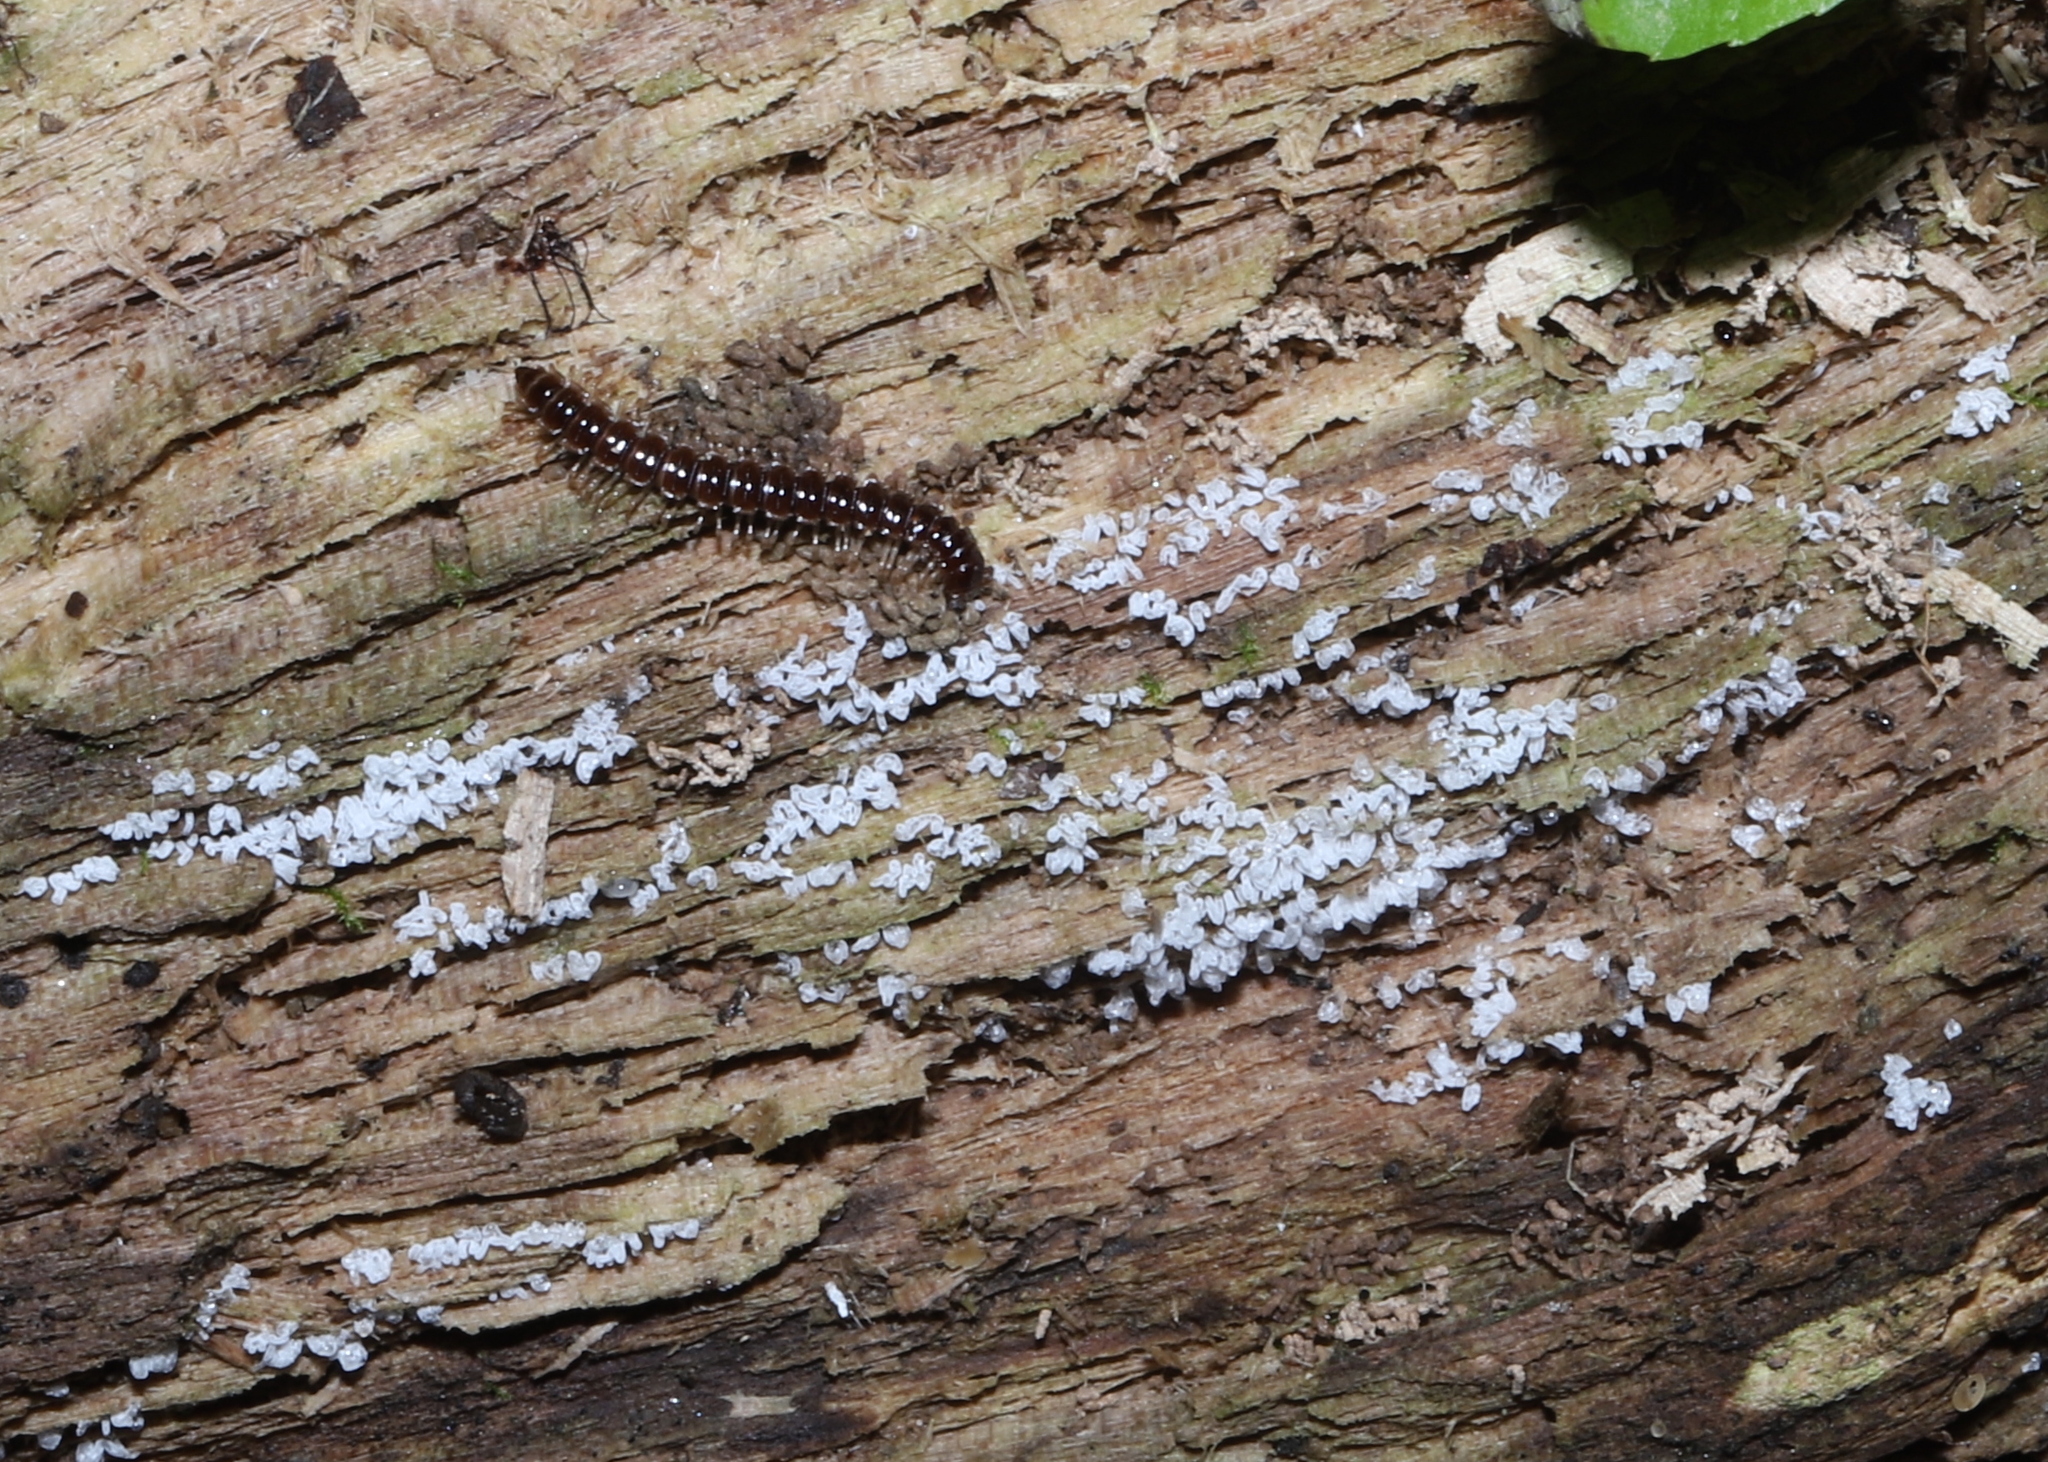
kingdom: Animalia
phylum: Arthropoda
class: Diplopoda
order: Polydesmida
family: Paradoxosomatidae
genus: Oxidus
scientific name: Oxidus gracilis
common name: Greenhouse millipede
